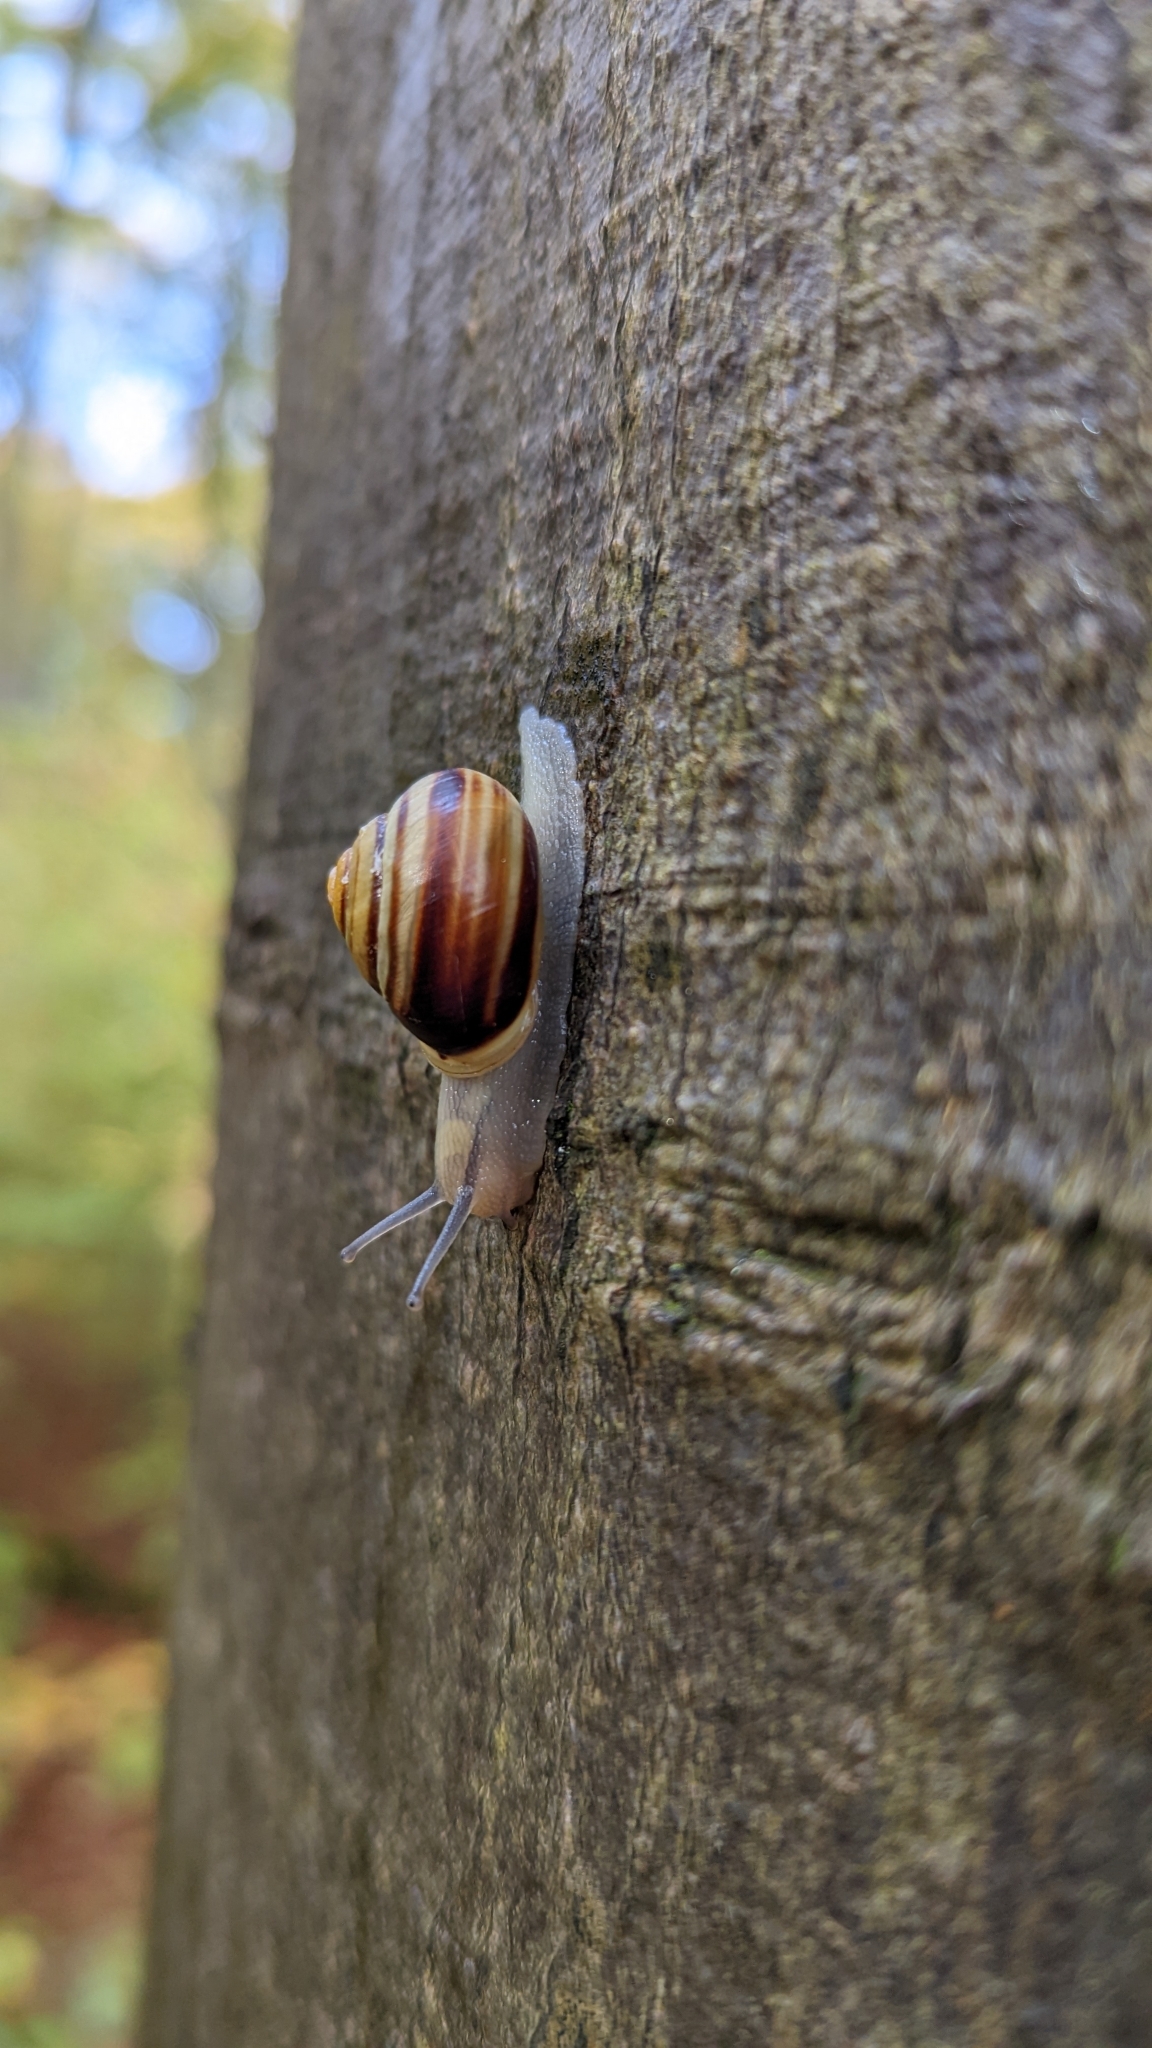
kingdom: Animalia
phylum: Mollusca
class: Gastropoda
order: Stylommatophora
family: Helicidae
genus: Cepaea
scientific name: Cepaea hortensis
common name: White-lip gardensnail
